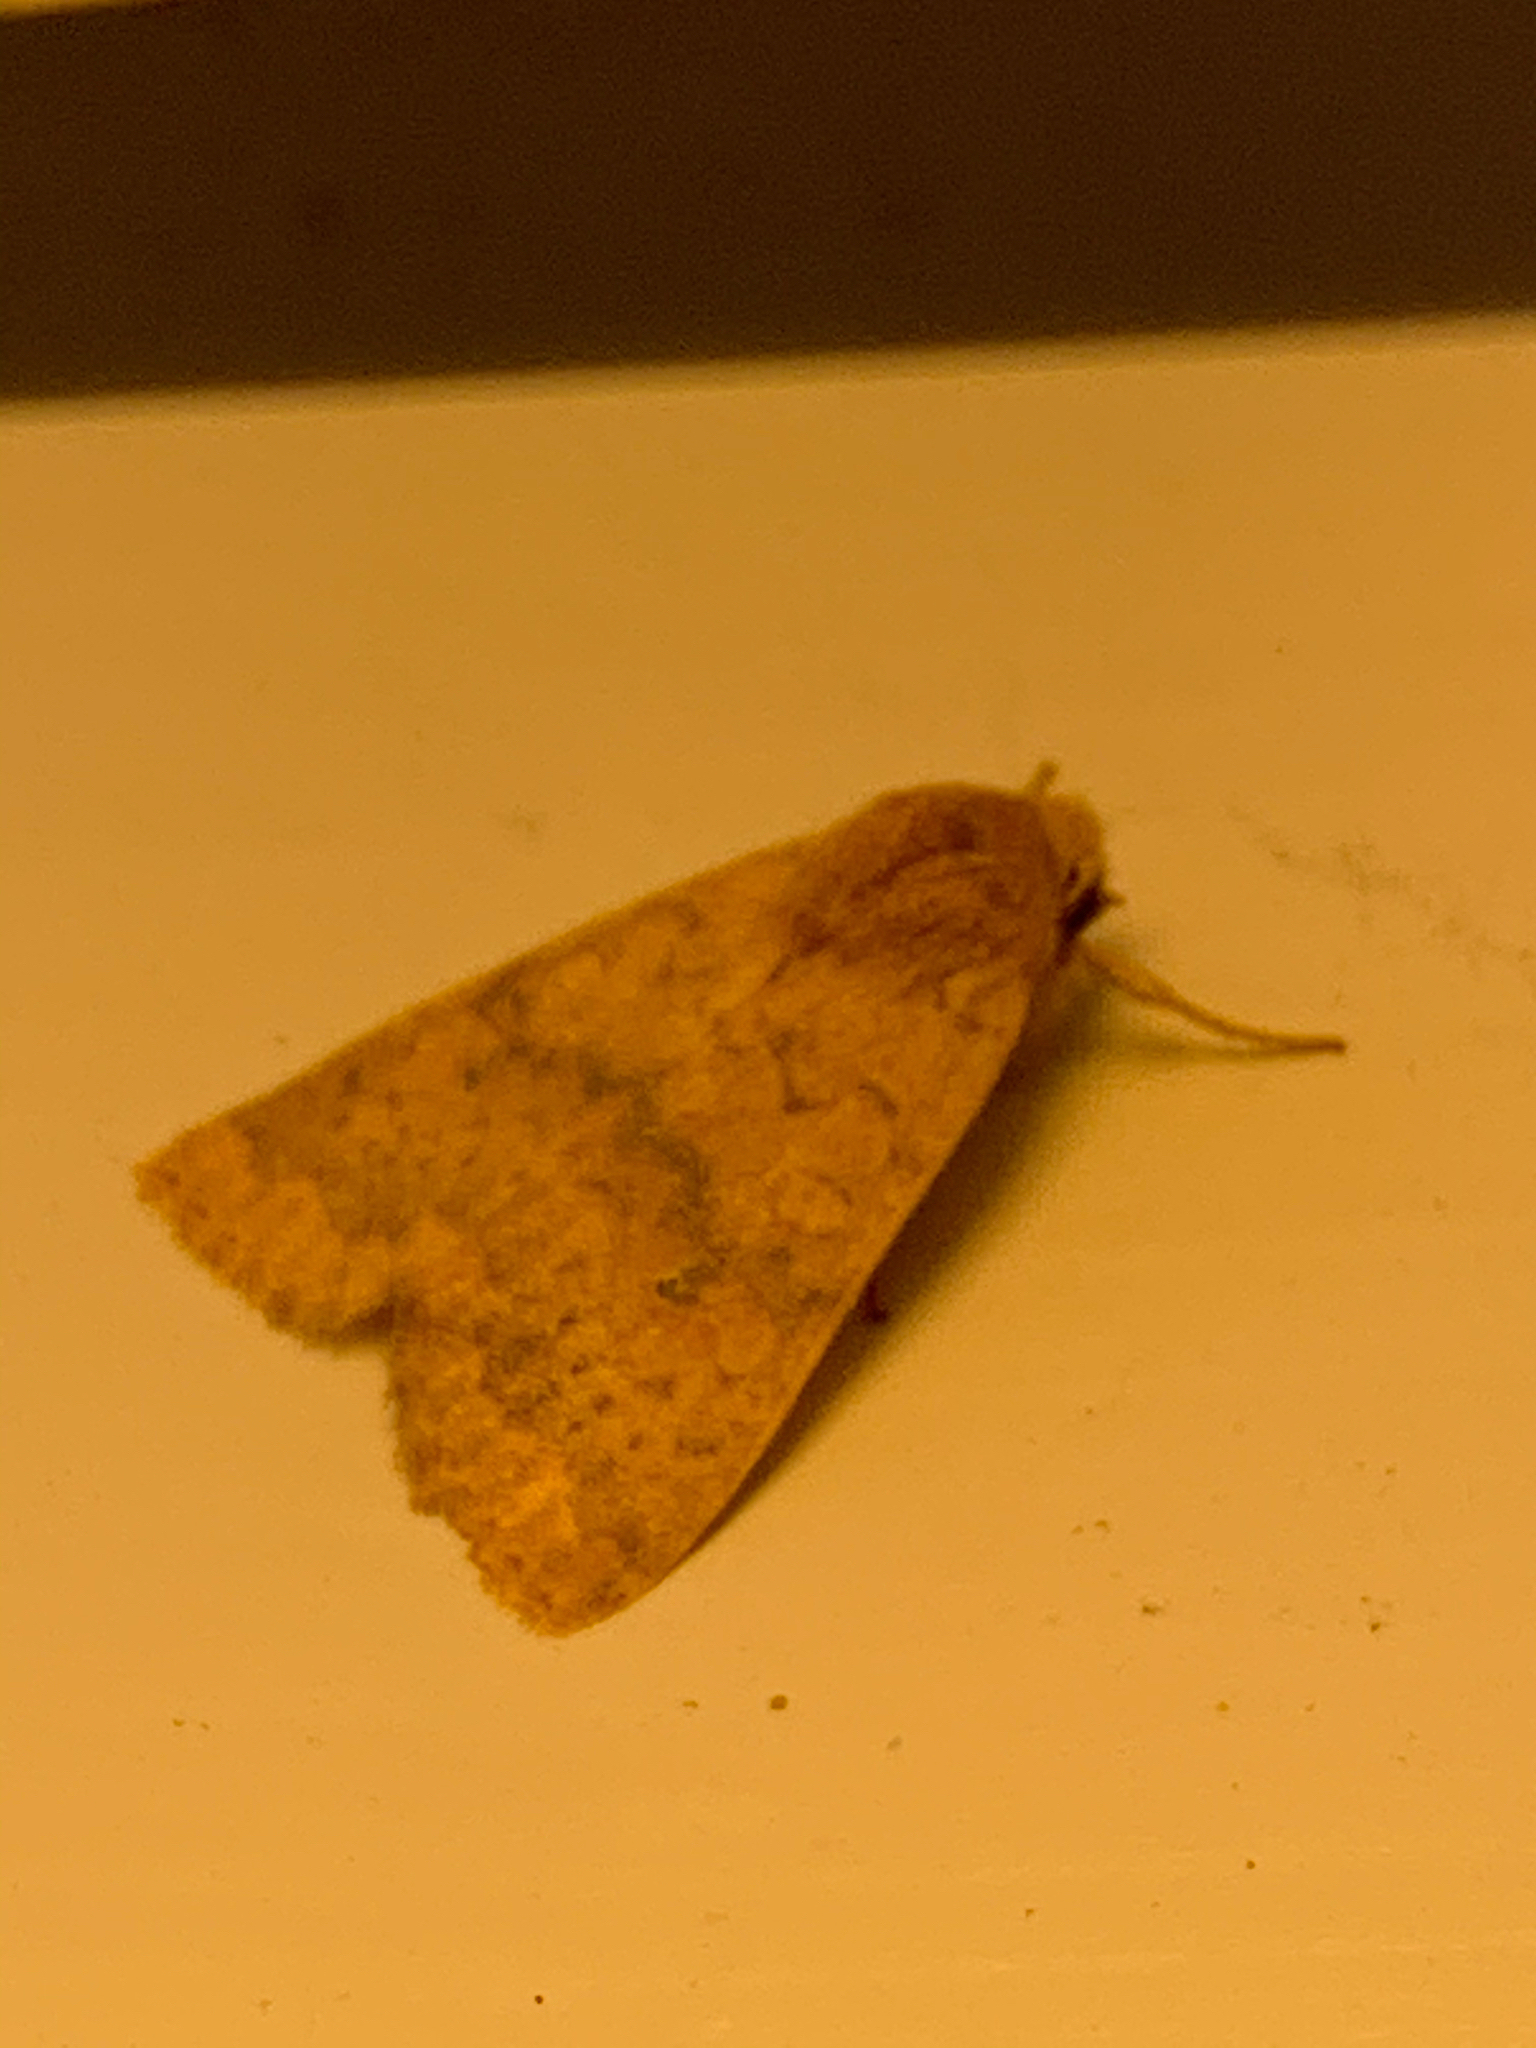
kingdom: Animalia
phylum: Arthropoda
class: Insecta
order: Lepidoptera
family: Noctuidae
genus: Agrochola
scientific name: Agrochola bicolorago
